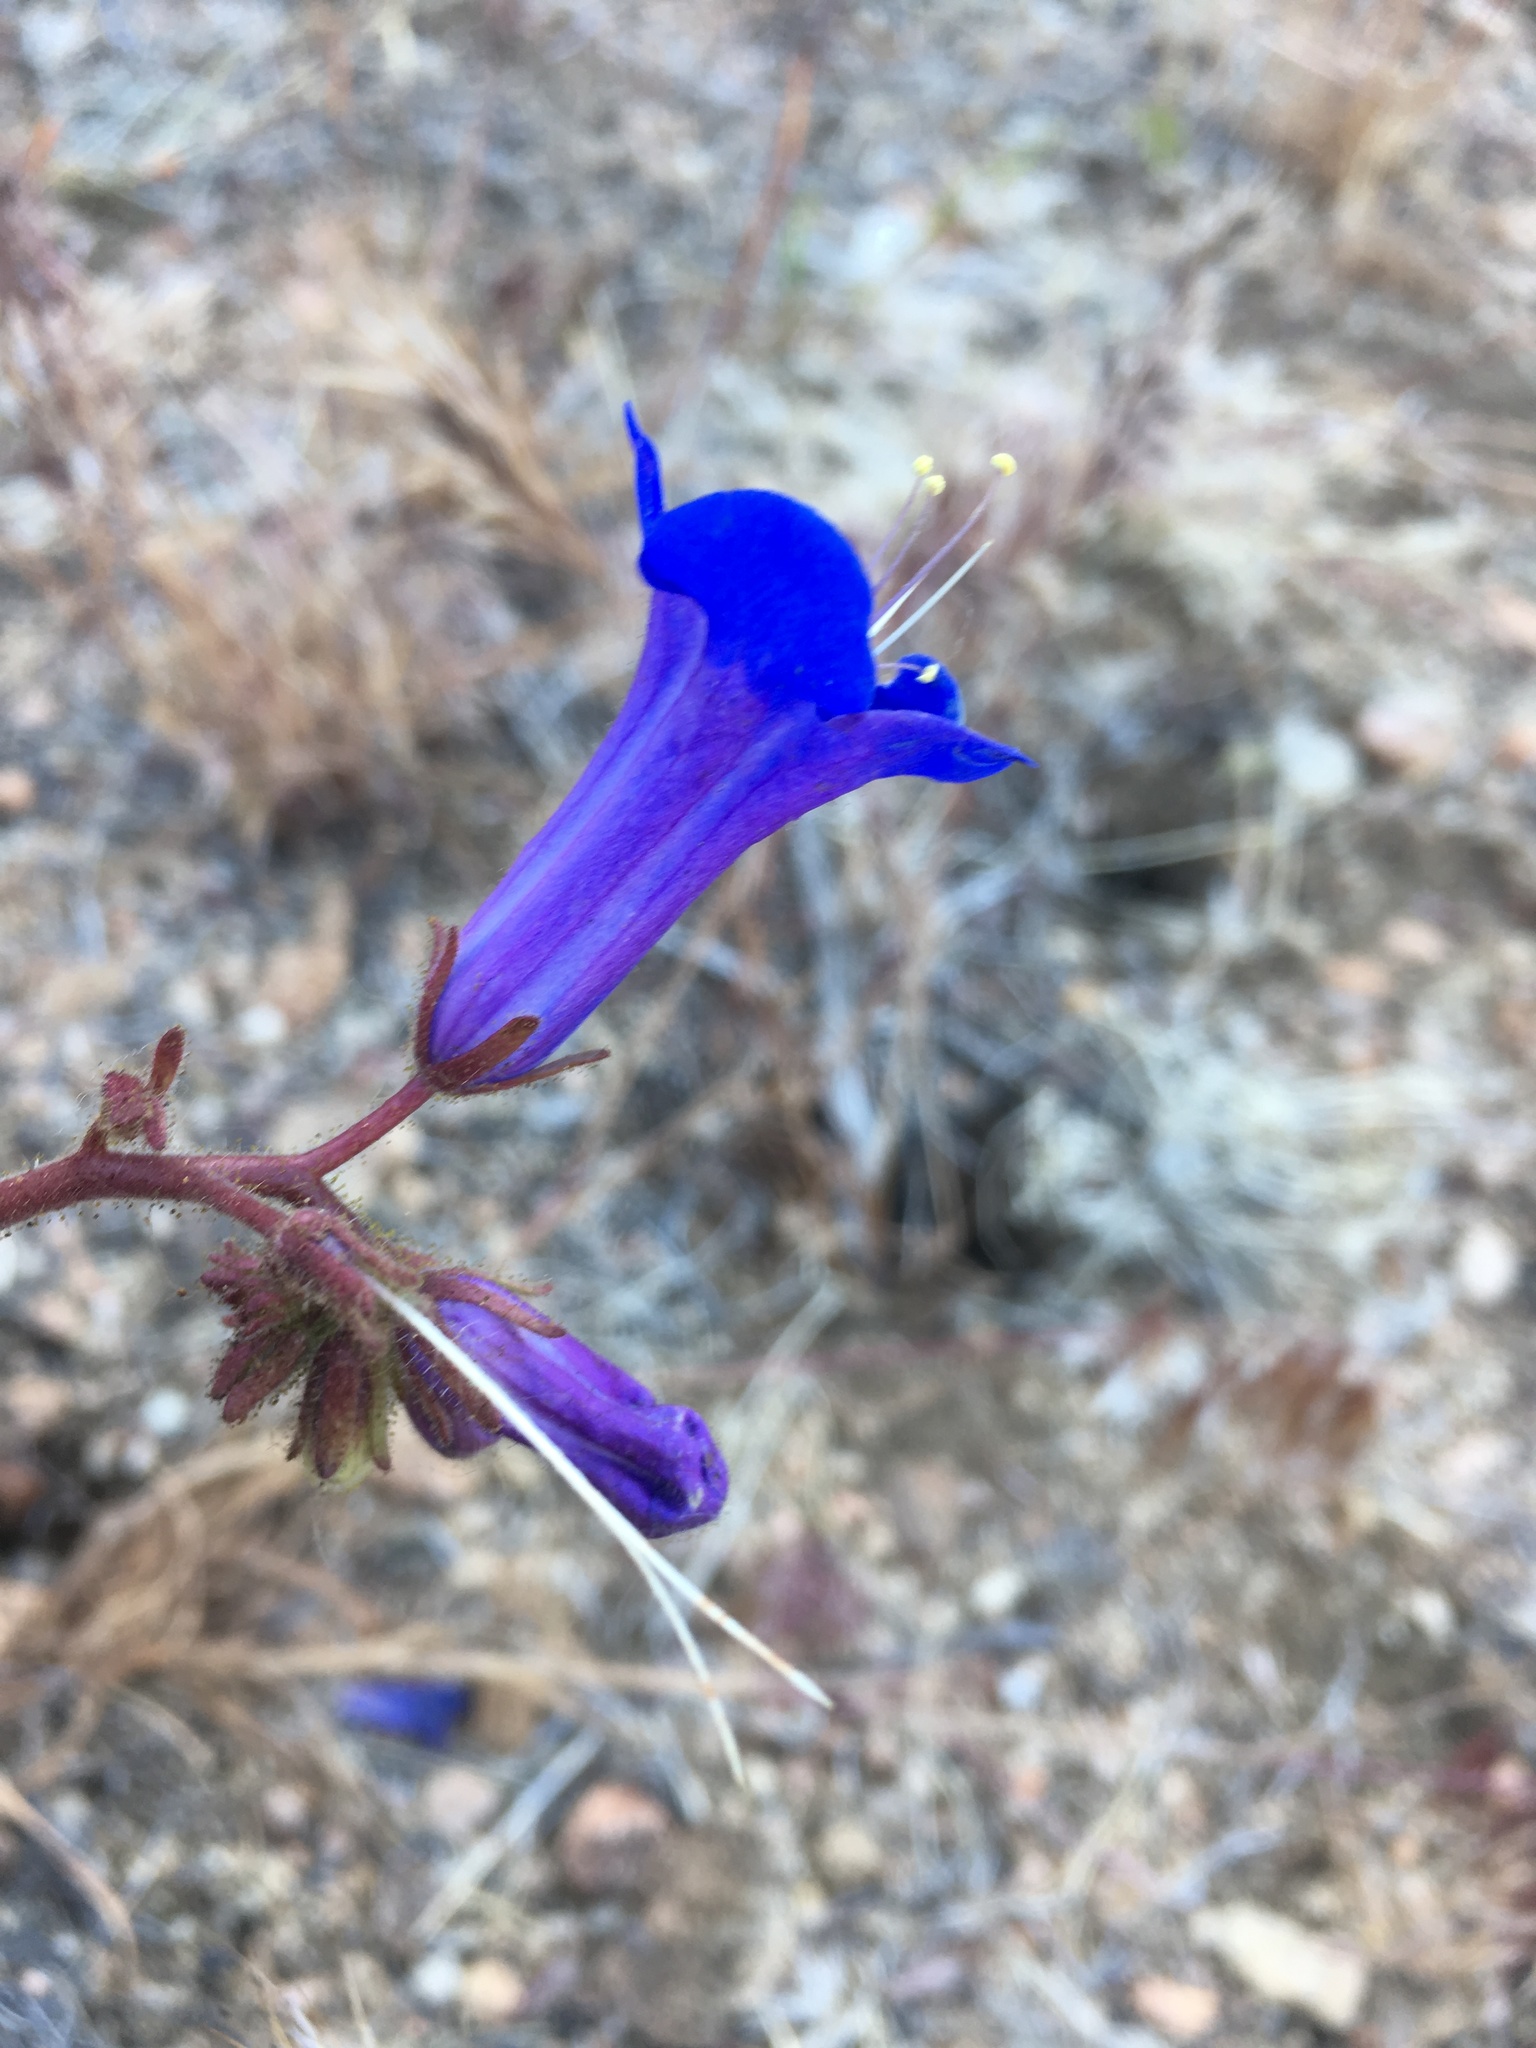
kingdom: Plantae
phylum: Tracheophyta
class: Magnoliopsida
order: Boraginales
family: Hydrophyllaceae
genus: Phacelia
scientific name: Phacelia campanularia
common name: California bluebell
